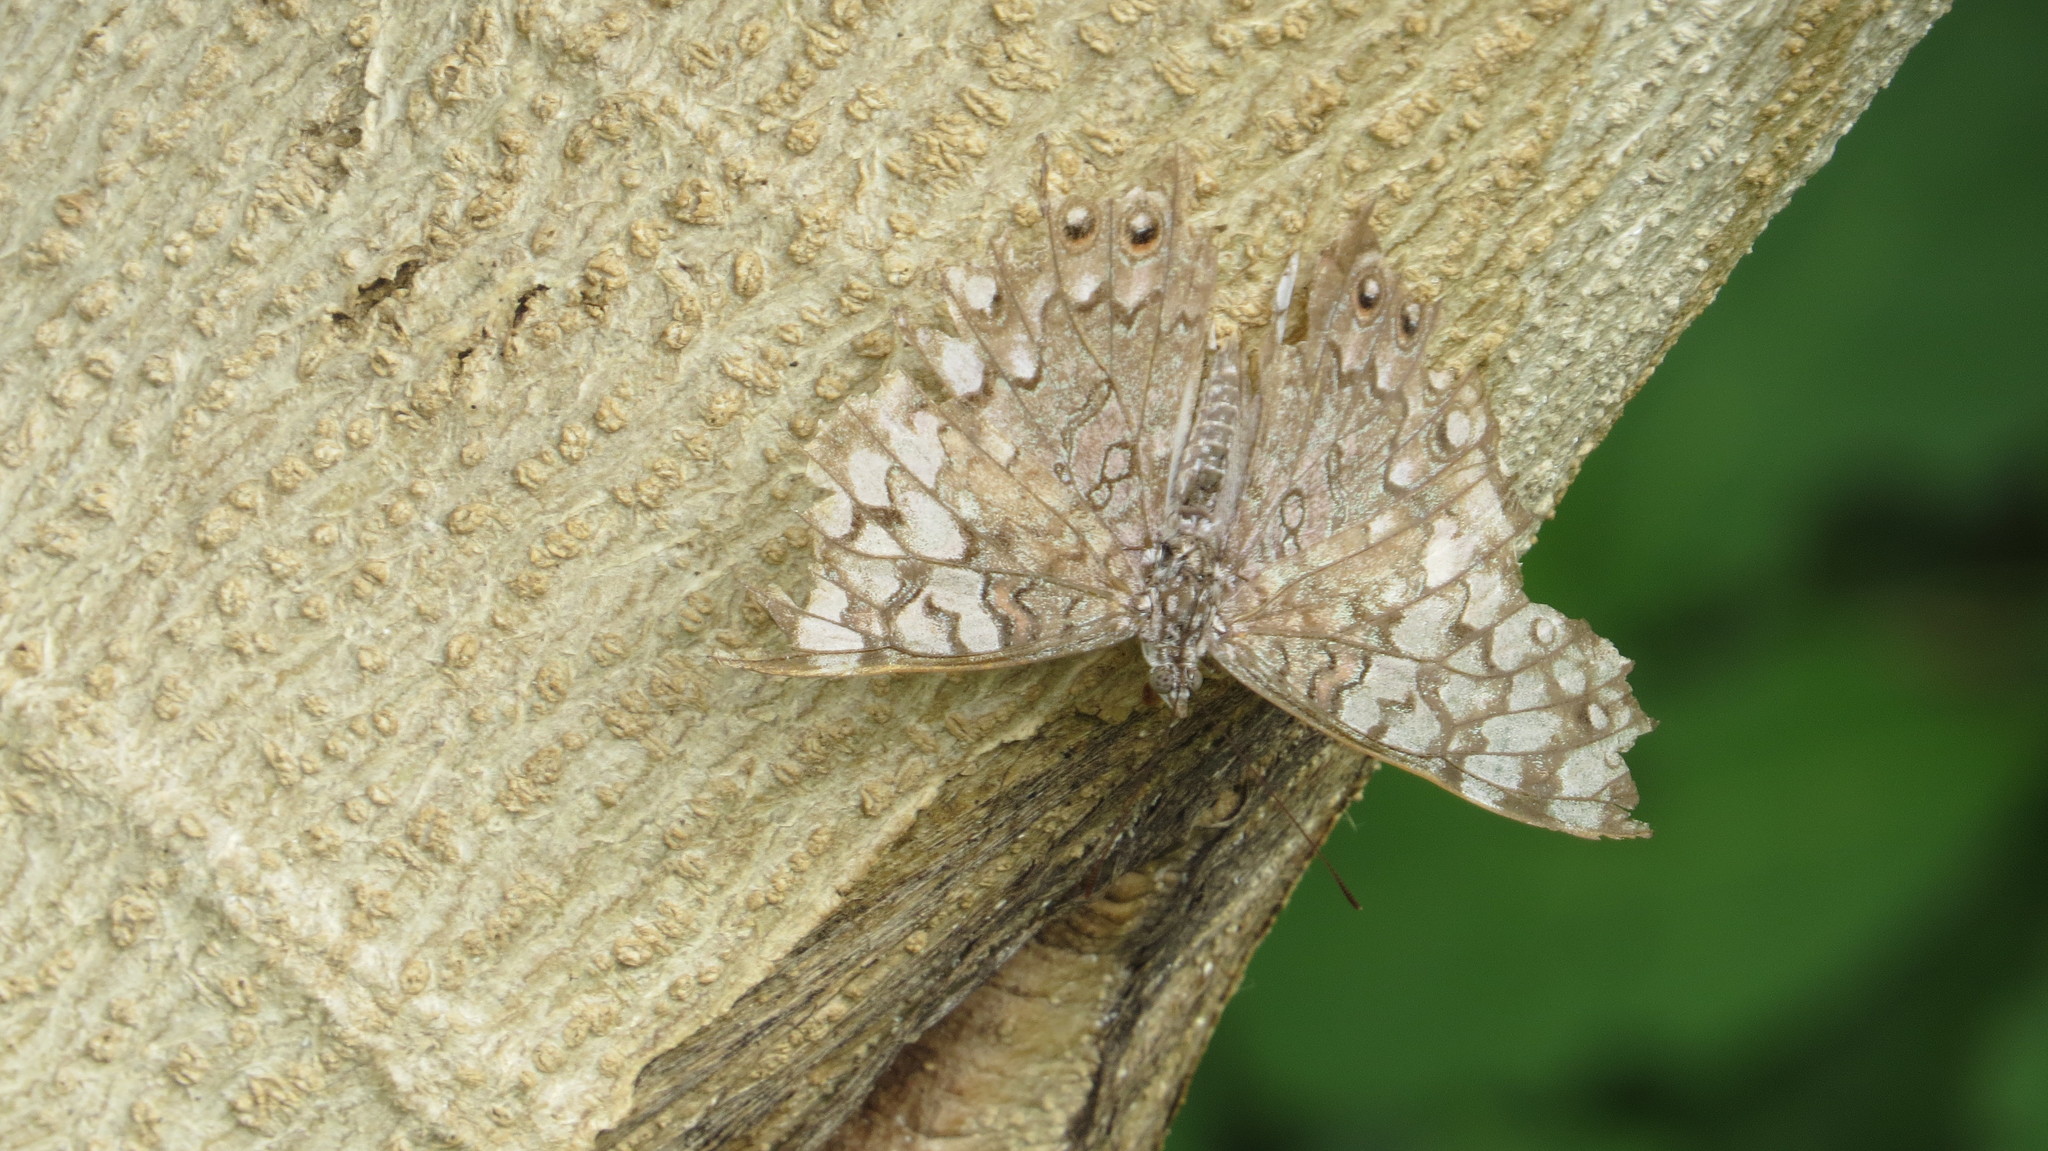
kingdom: Animalia
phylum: Arthropoda
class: Insecta
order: Lepidoptera
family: Nymphalidae
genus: Hamadryas
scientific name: Hamadryas februa
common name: Gray cracker
